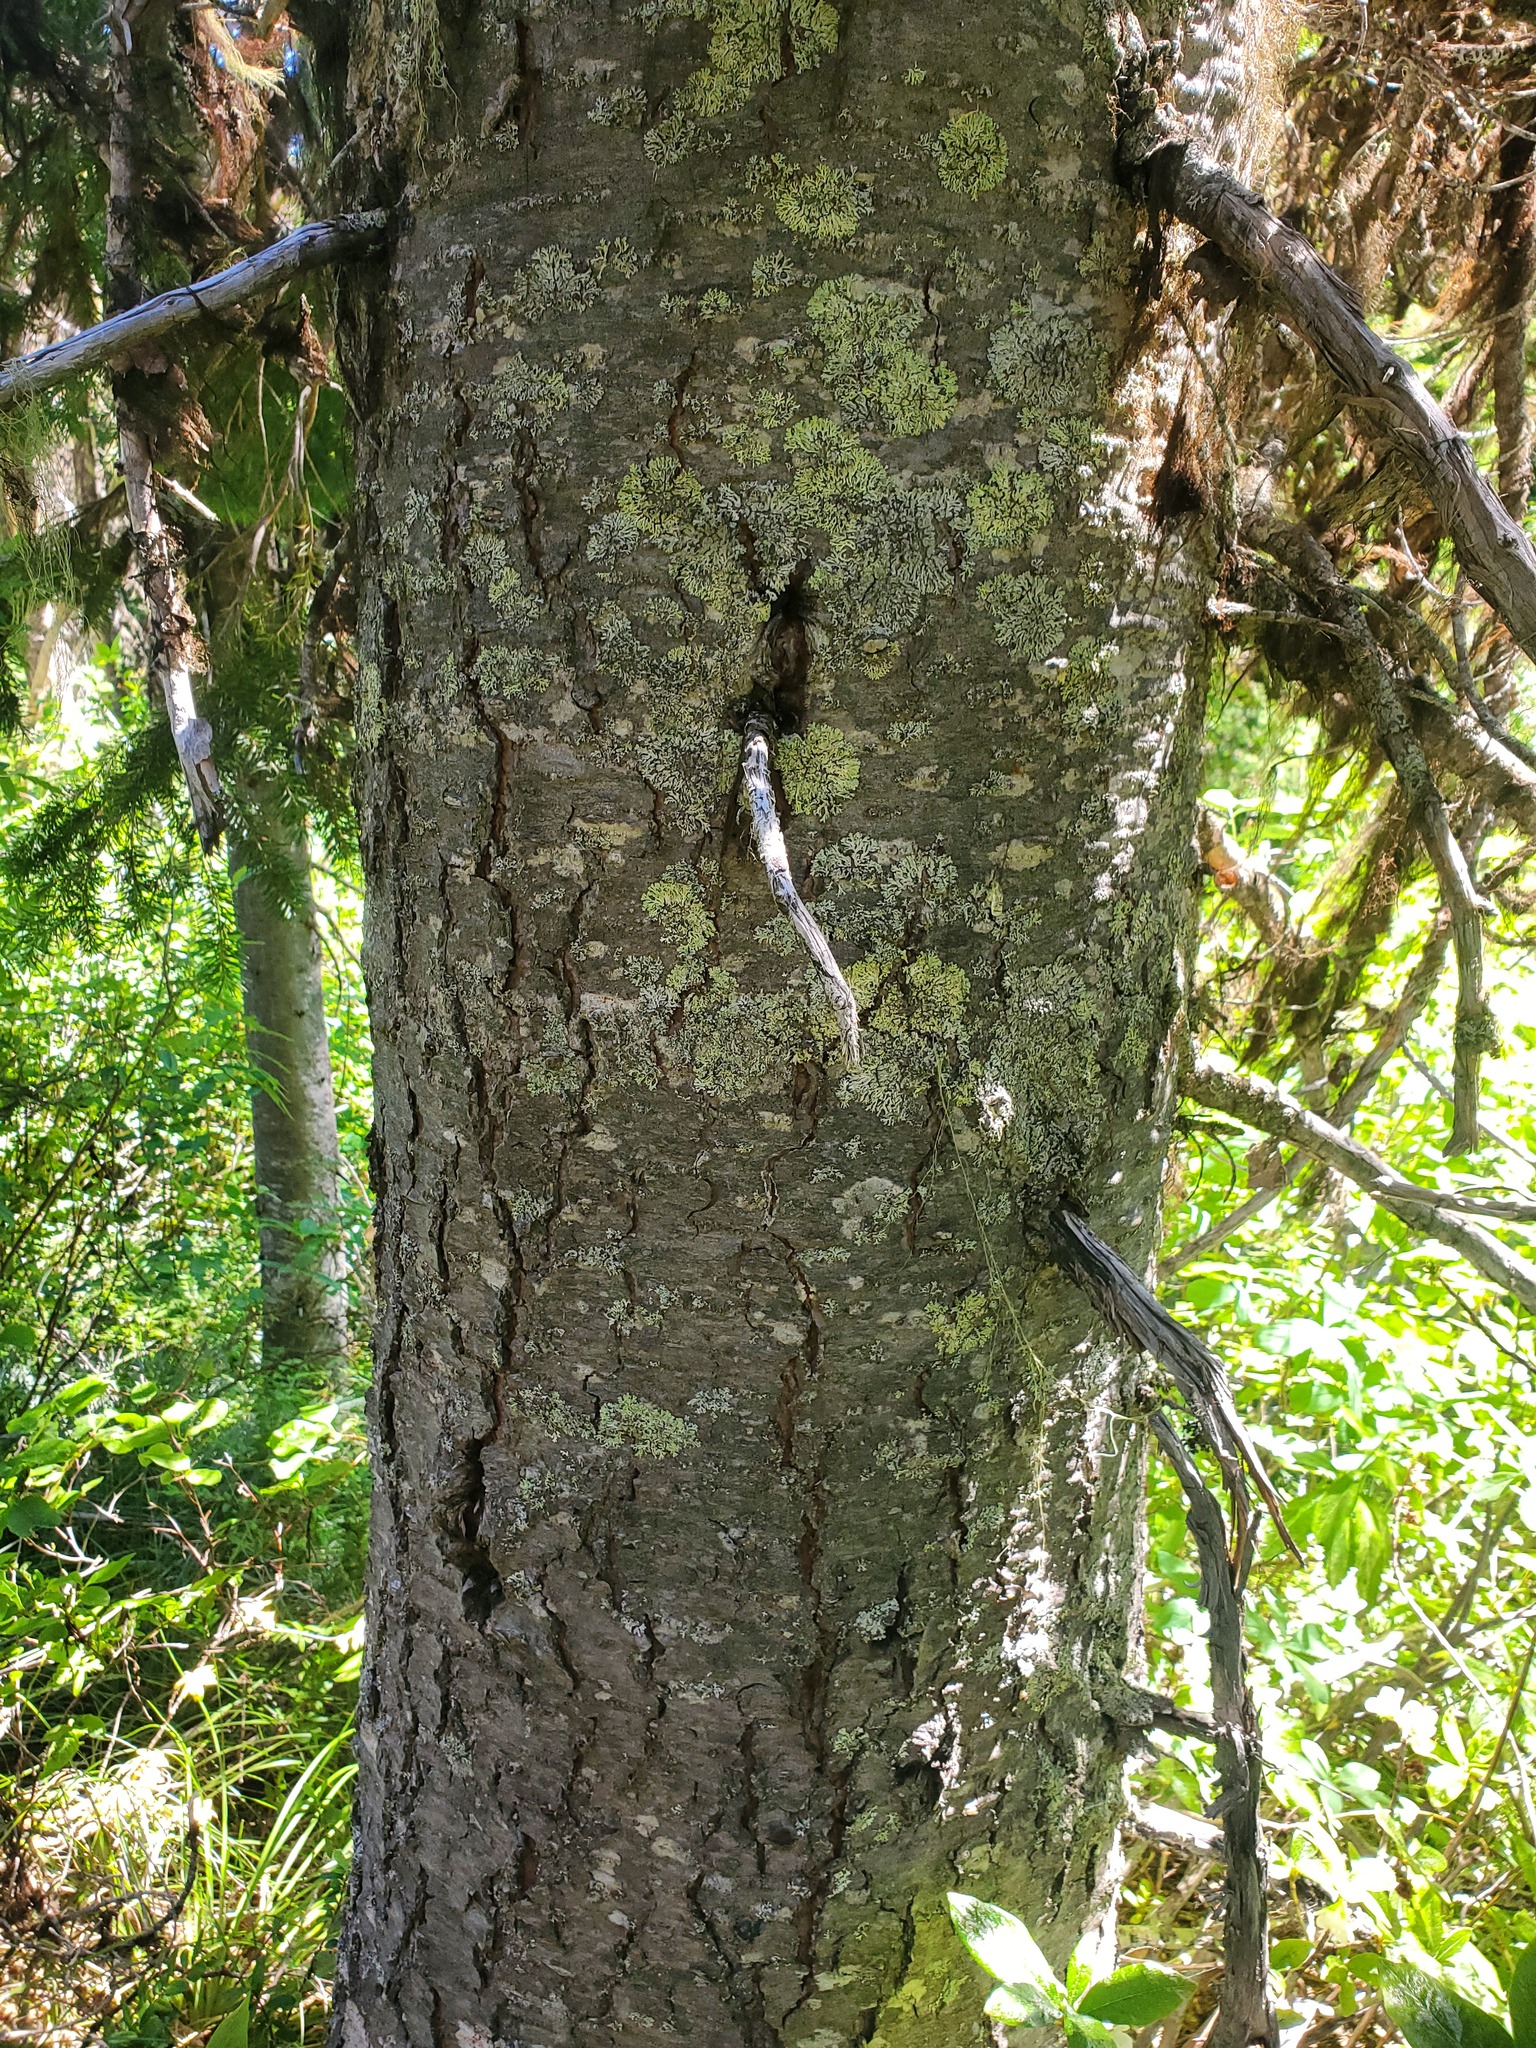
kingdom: Plantae
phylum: Tracheophyta
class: Pinopsida
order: Pinales
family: Pinaceae
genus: Abies
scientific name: Abies lasiocarpa
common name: Subalpine fir
